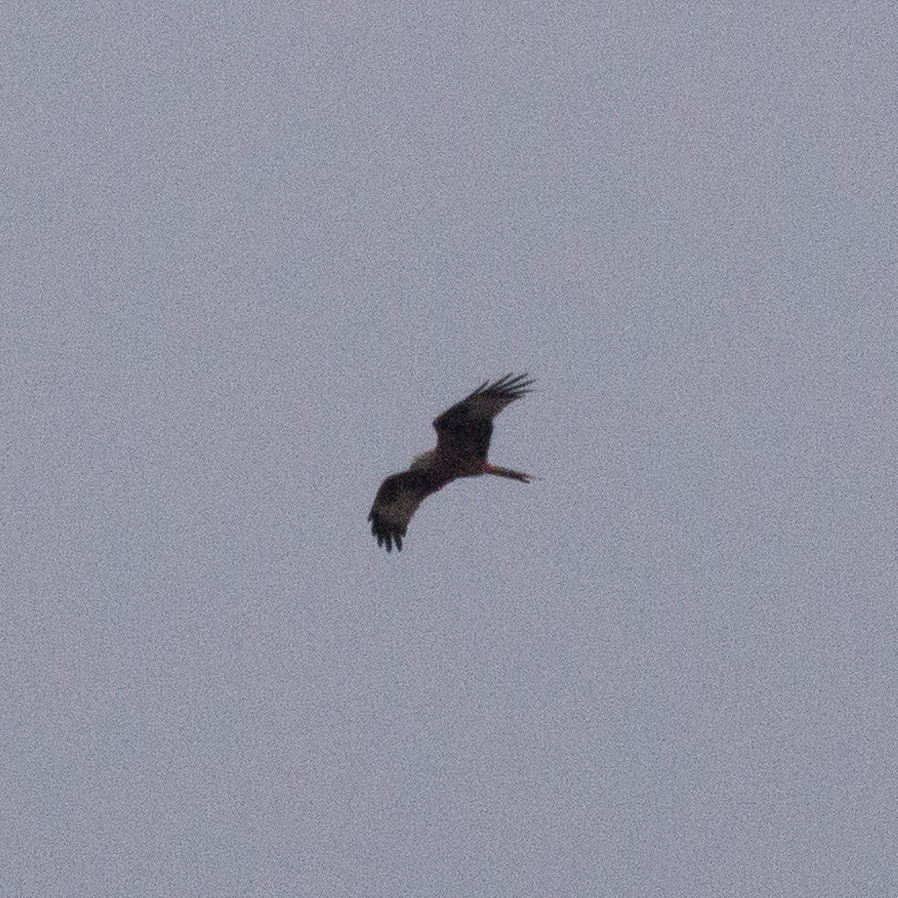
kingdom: Animalia
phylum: Chordata
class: Aves
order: Accipitriformes
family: Accipitridae
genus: Milvus
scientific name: Milvus milvus
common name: Red kite
